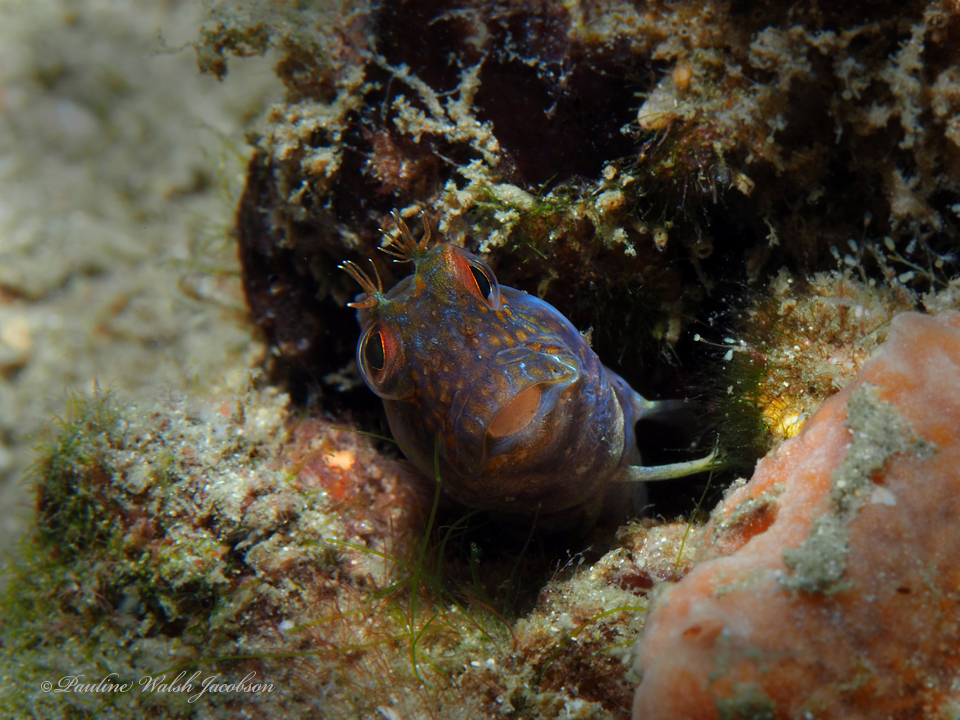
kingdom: Animalia
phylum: Chordata
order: Perciformes
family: Blenniidae
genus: Parablennius
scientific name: Parablennius marmoreus
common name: Seaweed blenny
